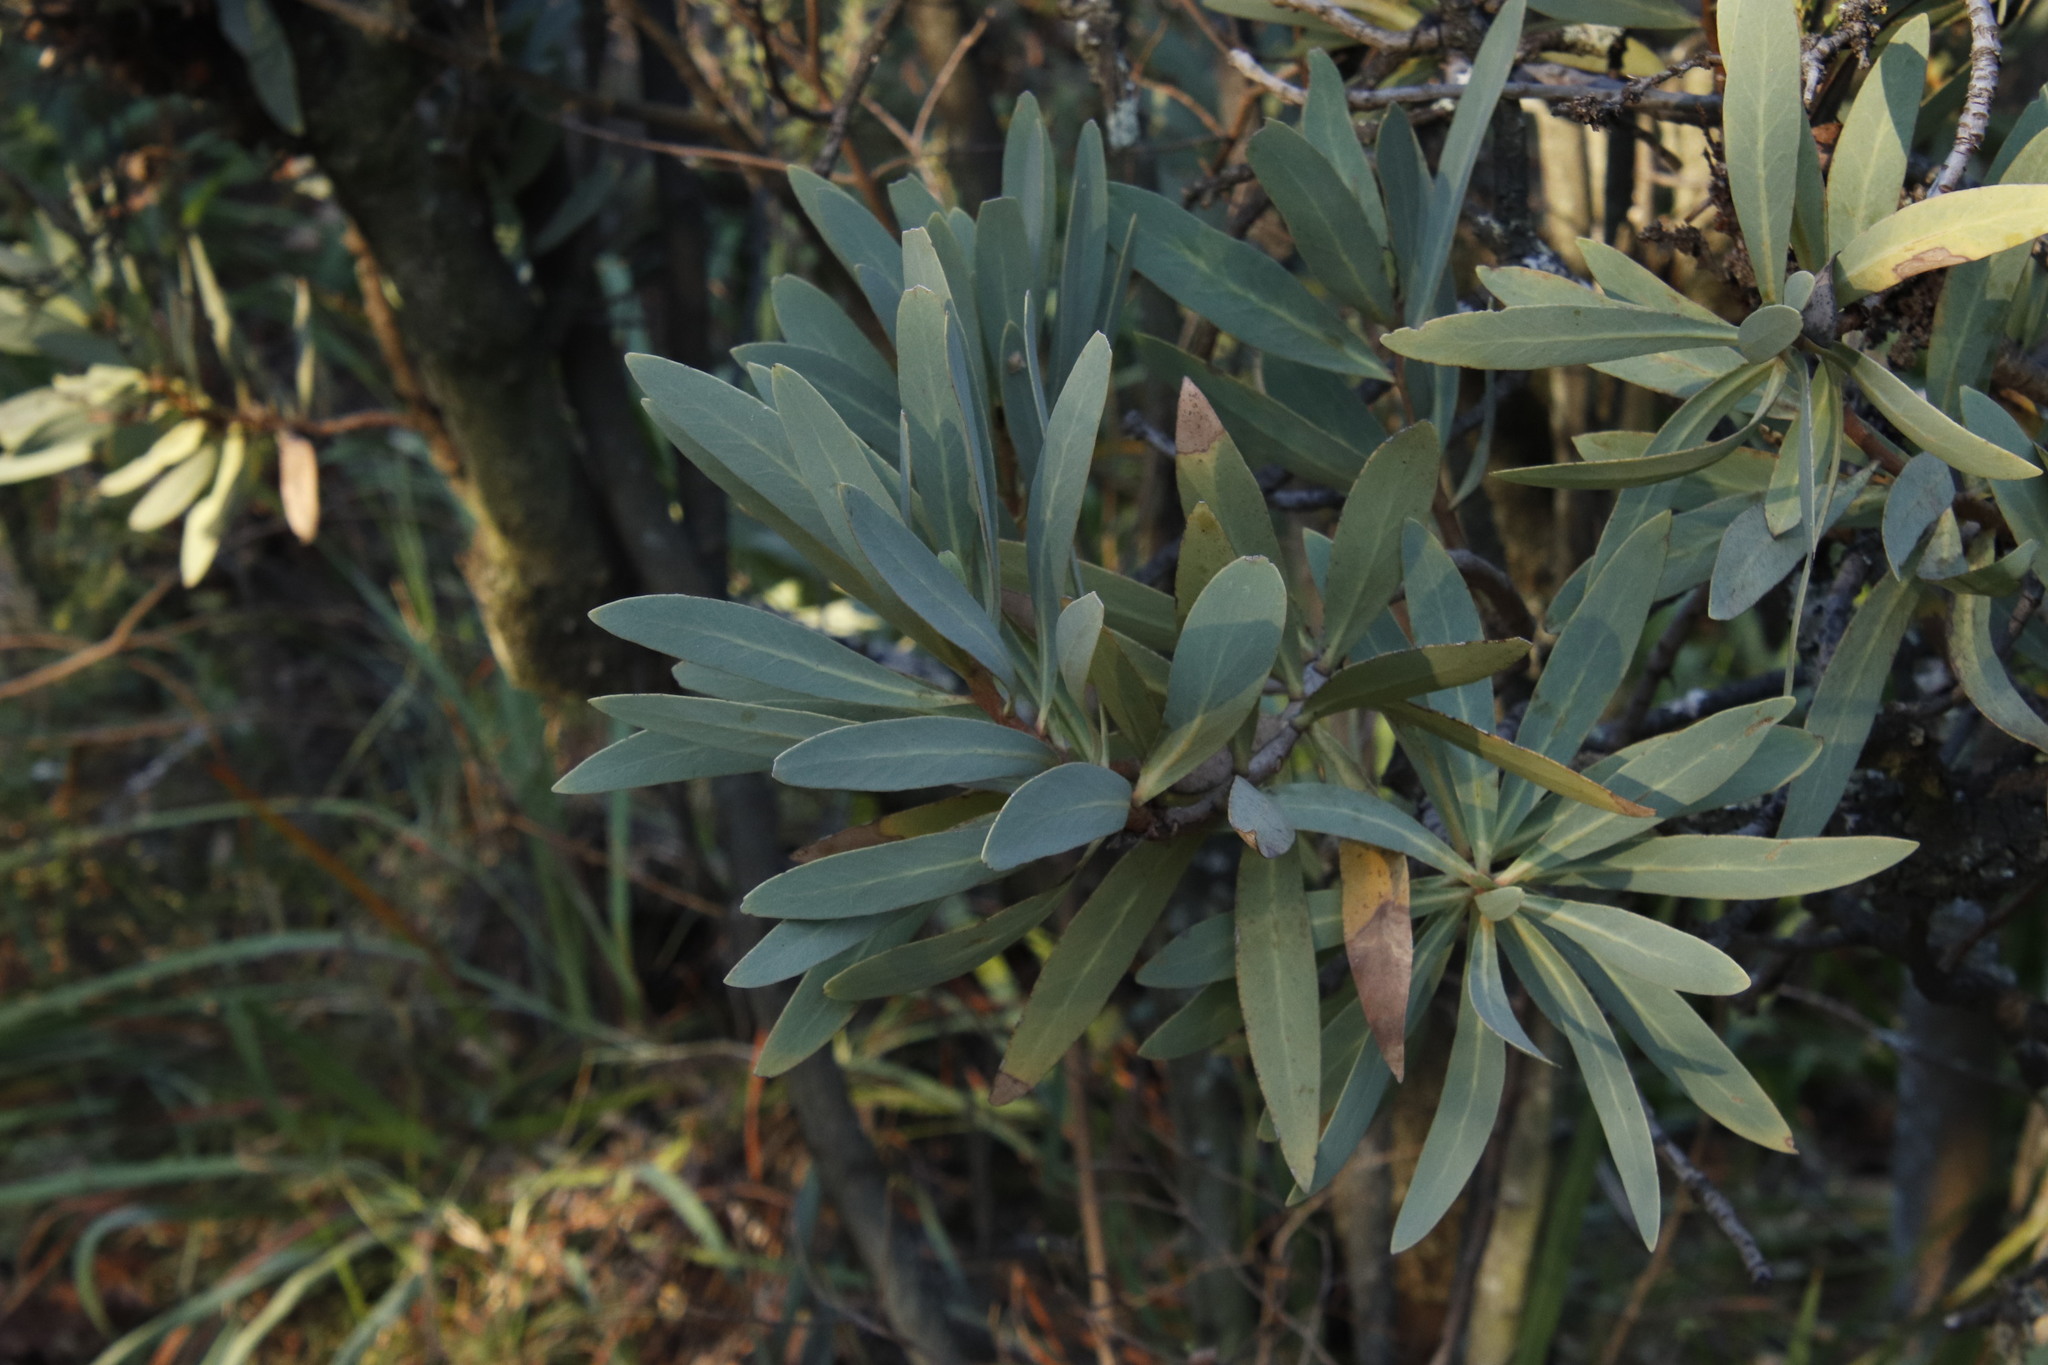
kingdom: Plantae
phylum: Tracheophyta
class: Magnoliopsida
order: Proteales
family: Proteaceae
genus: Protea
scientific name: Protea caffra
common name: Common sugarbush
